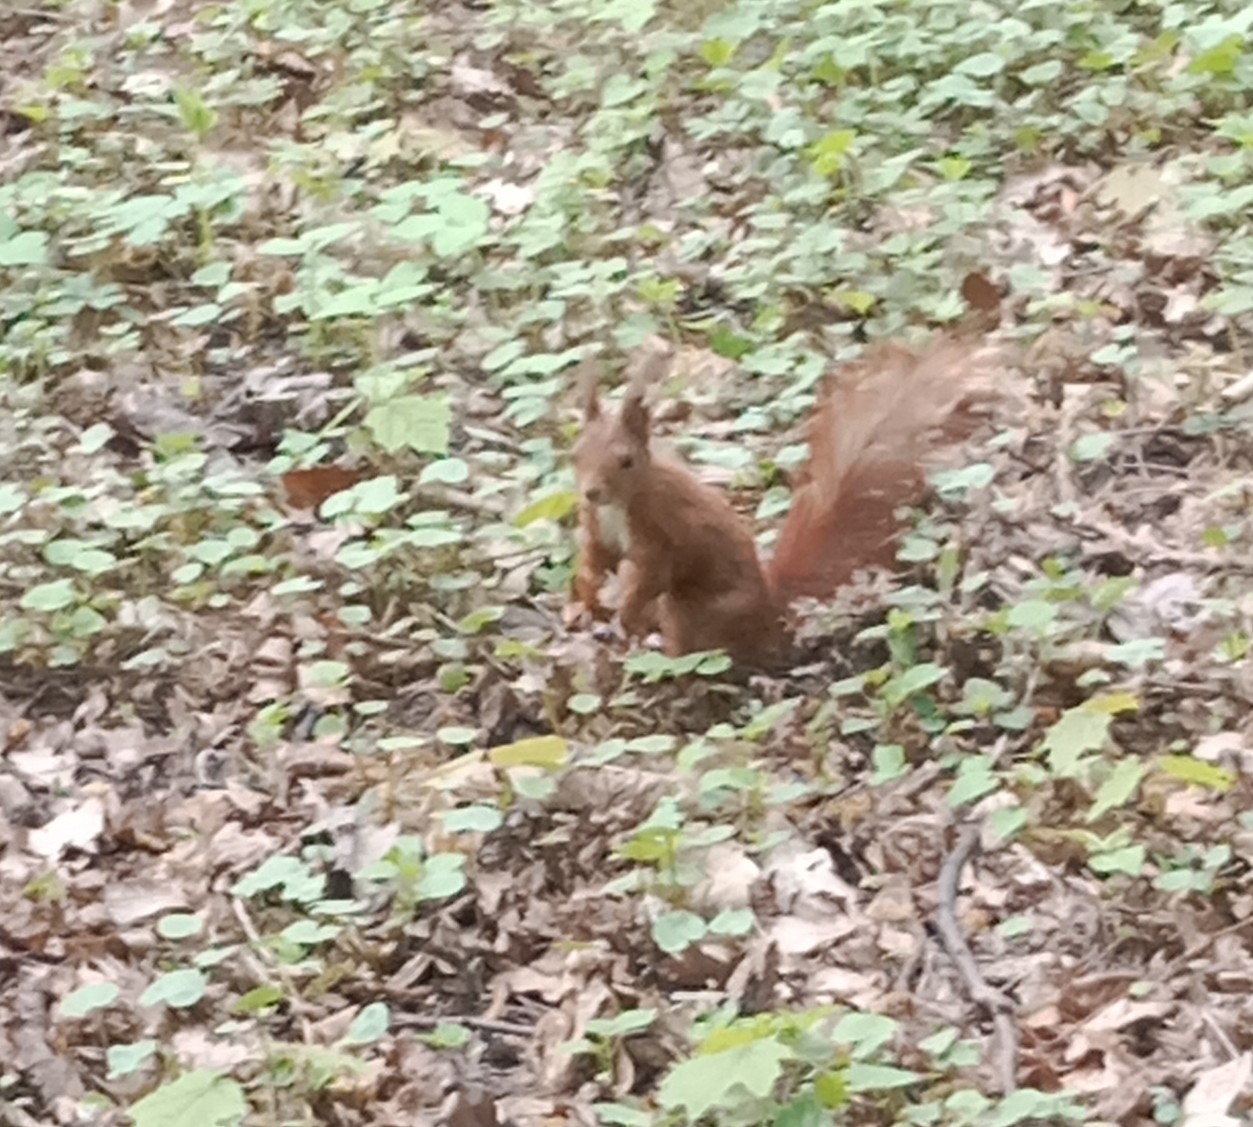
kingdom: Animalia
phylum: Chordata
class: Mammalia
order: Rodentia
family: Sciuridae
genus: Sciurus
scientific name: Sciurus vulgaris
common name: Eurasian red squirrel
